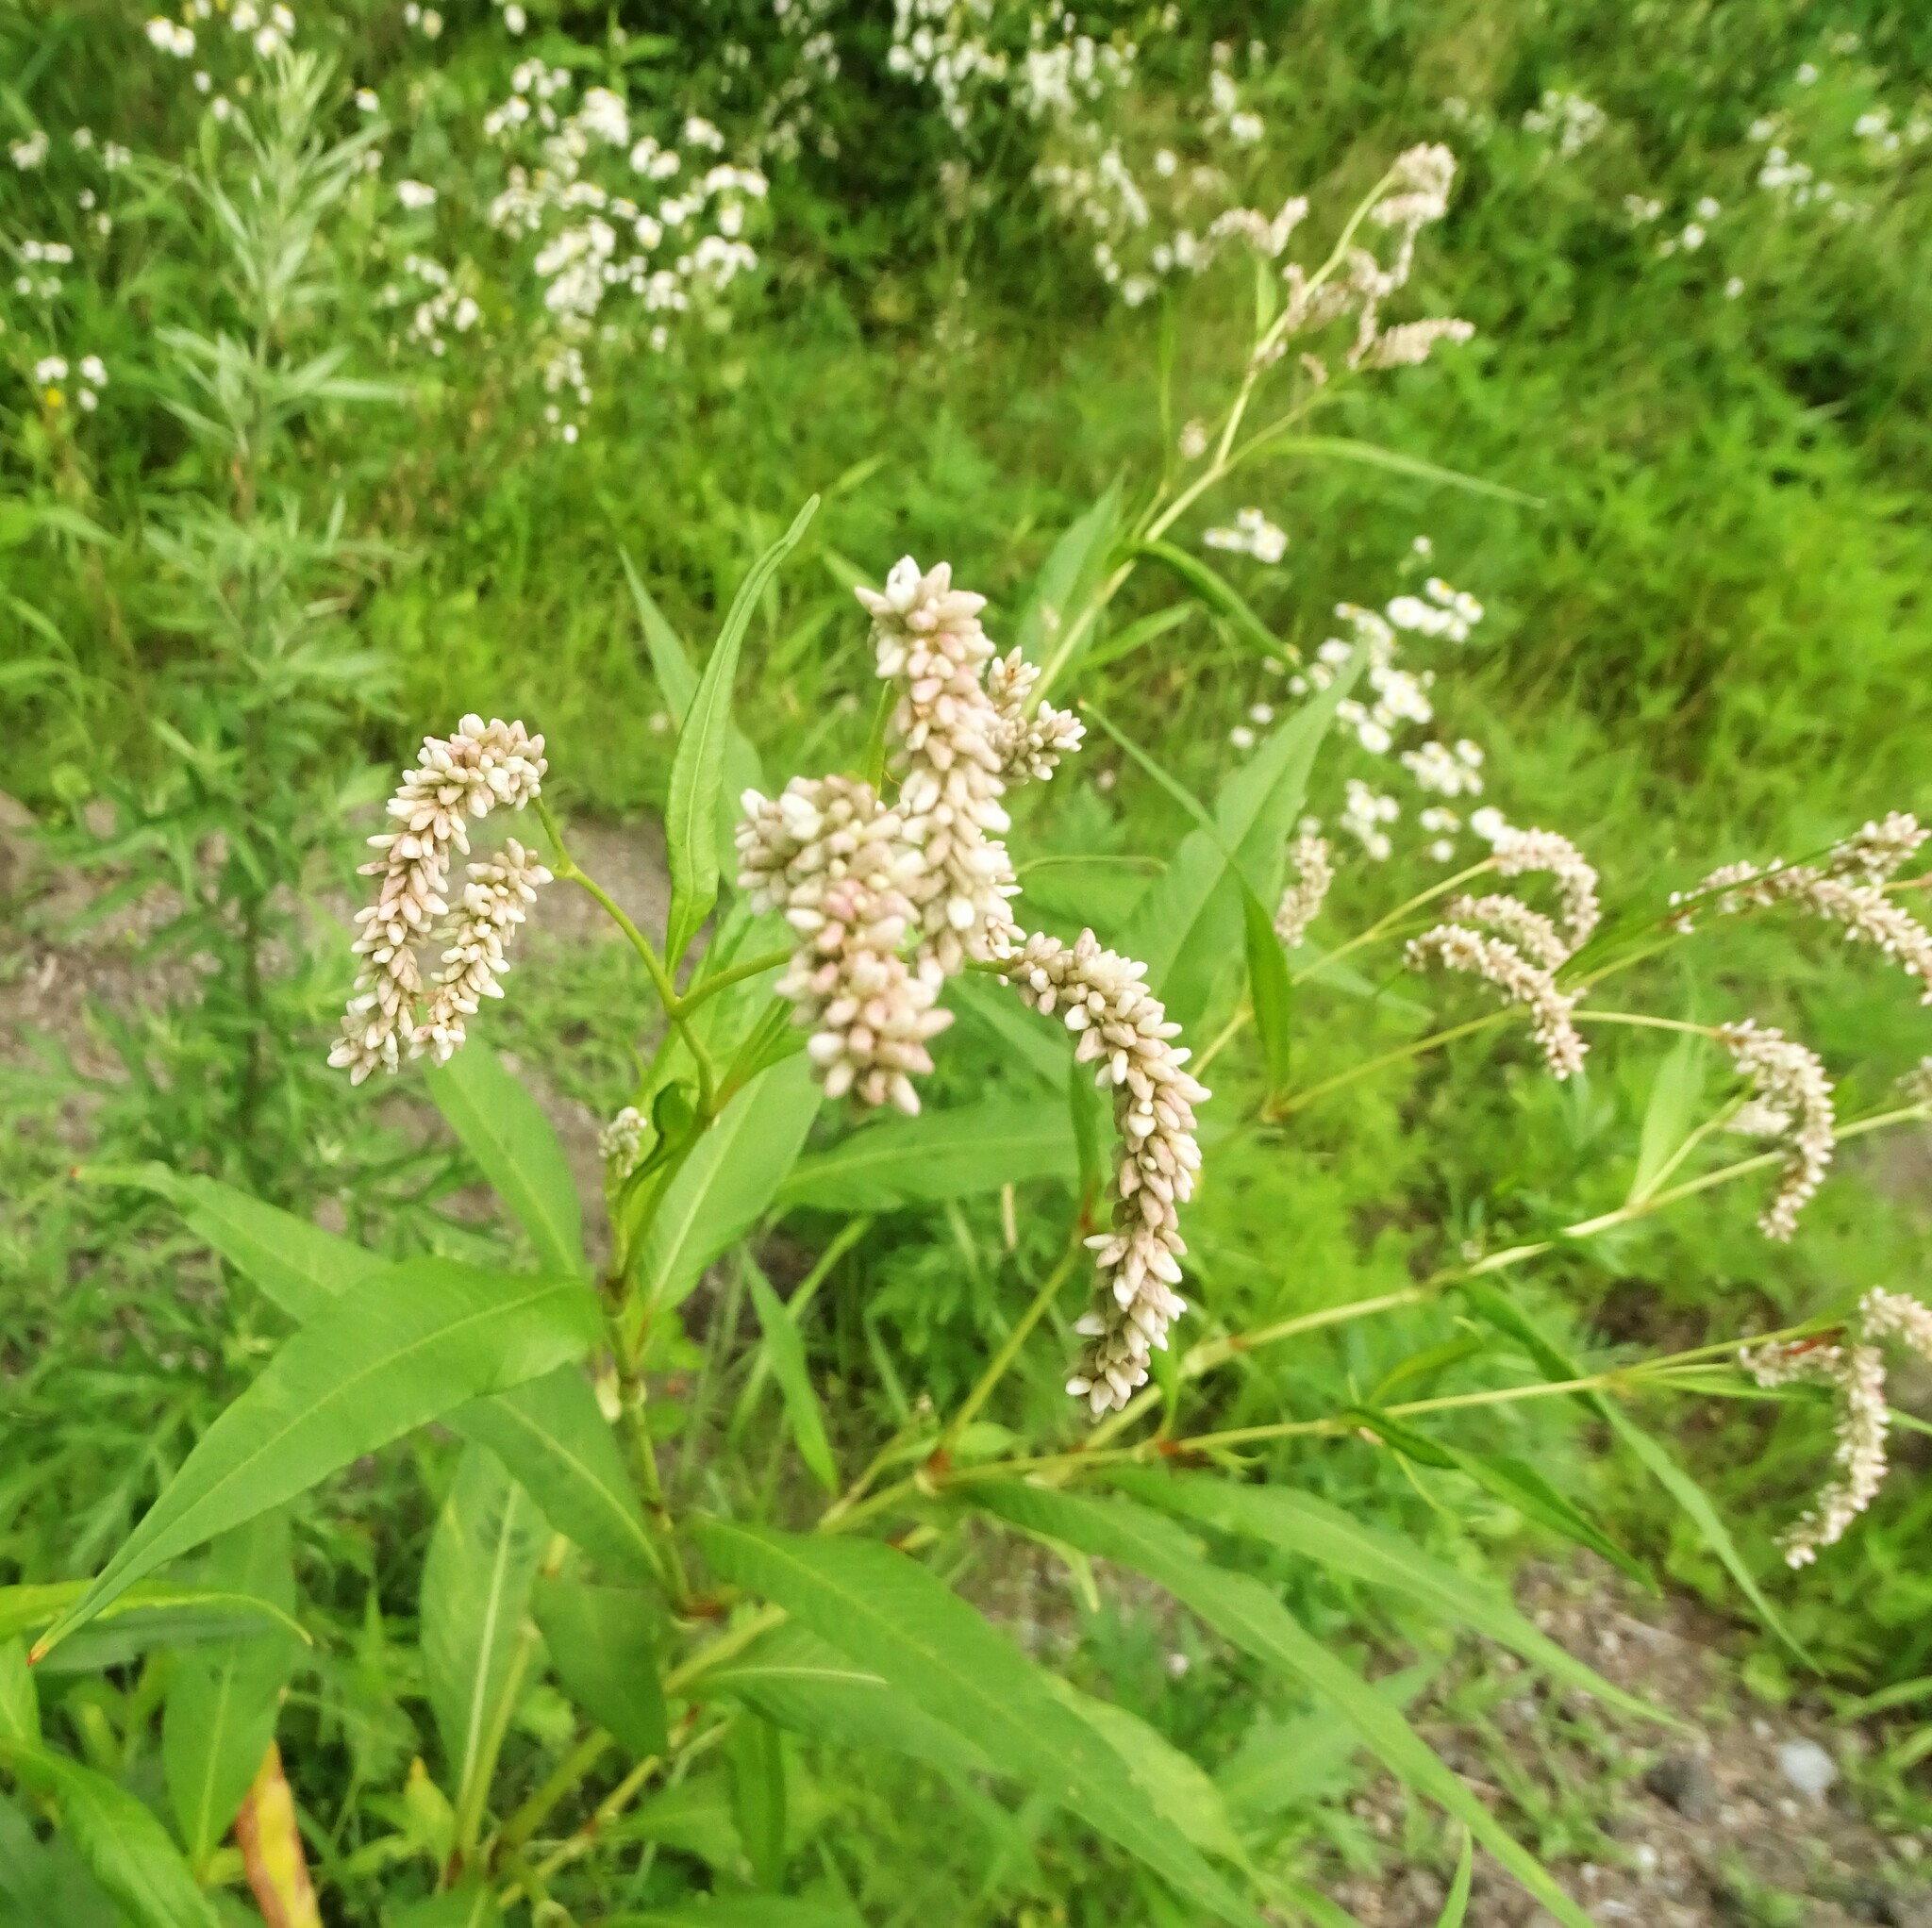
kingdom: Plantae
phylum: Tracheophyta
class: Magnoliopsida
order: Caryophyllales
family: Polygonaceae
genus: Persicaria
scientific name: Persicaria lapathifolia
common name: Curlytop knotweed
